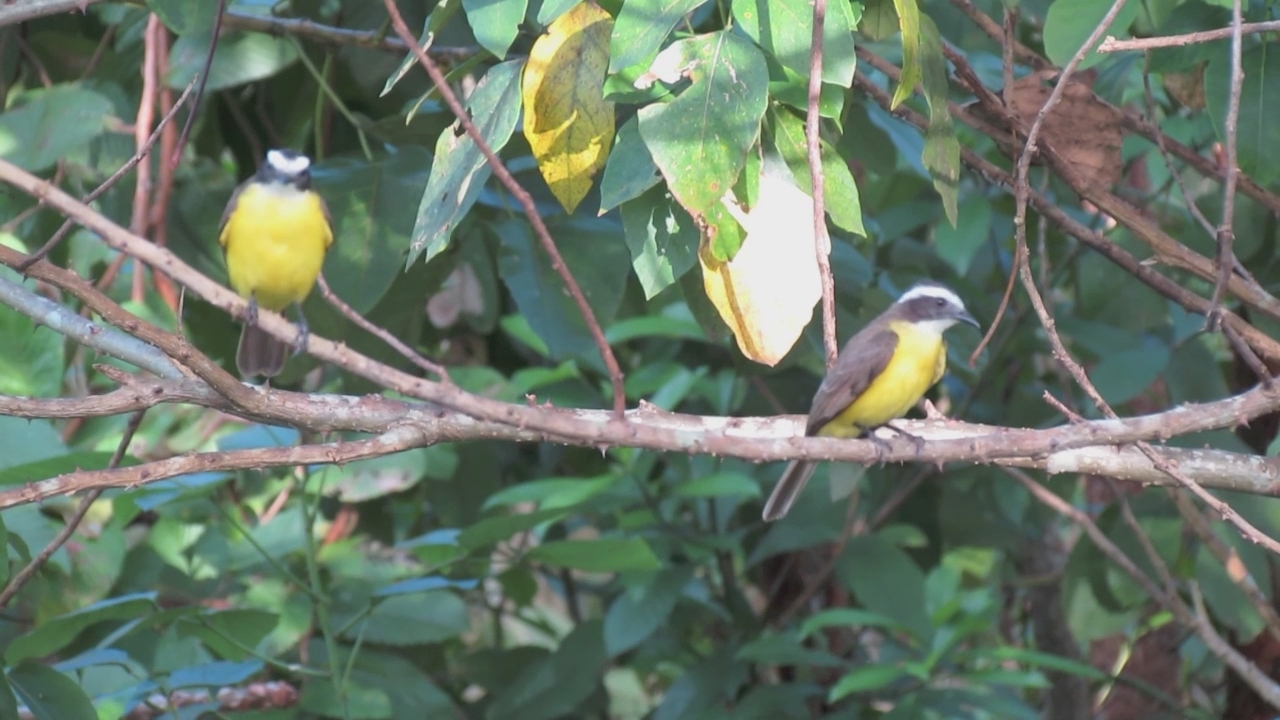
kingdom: Animalia
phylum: Chordata
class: Aves
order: Passeriformes
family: Tyrannidae
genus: Myiozetetes
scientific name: Myiozetetes similis
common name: Social flycatcher
